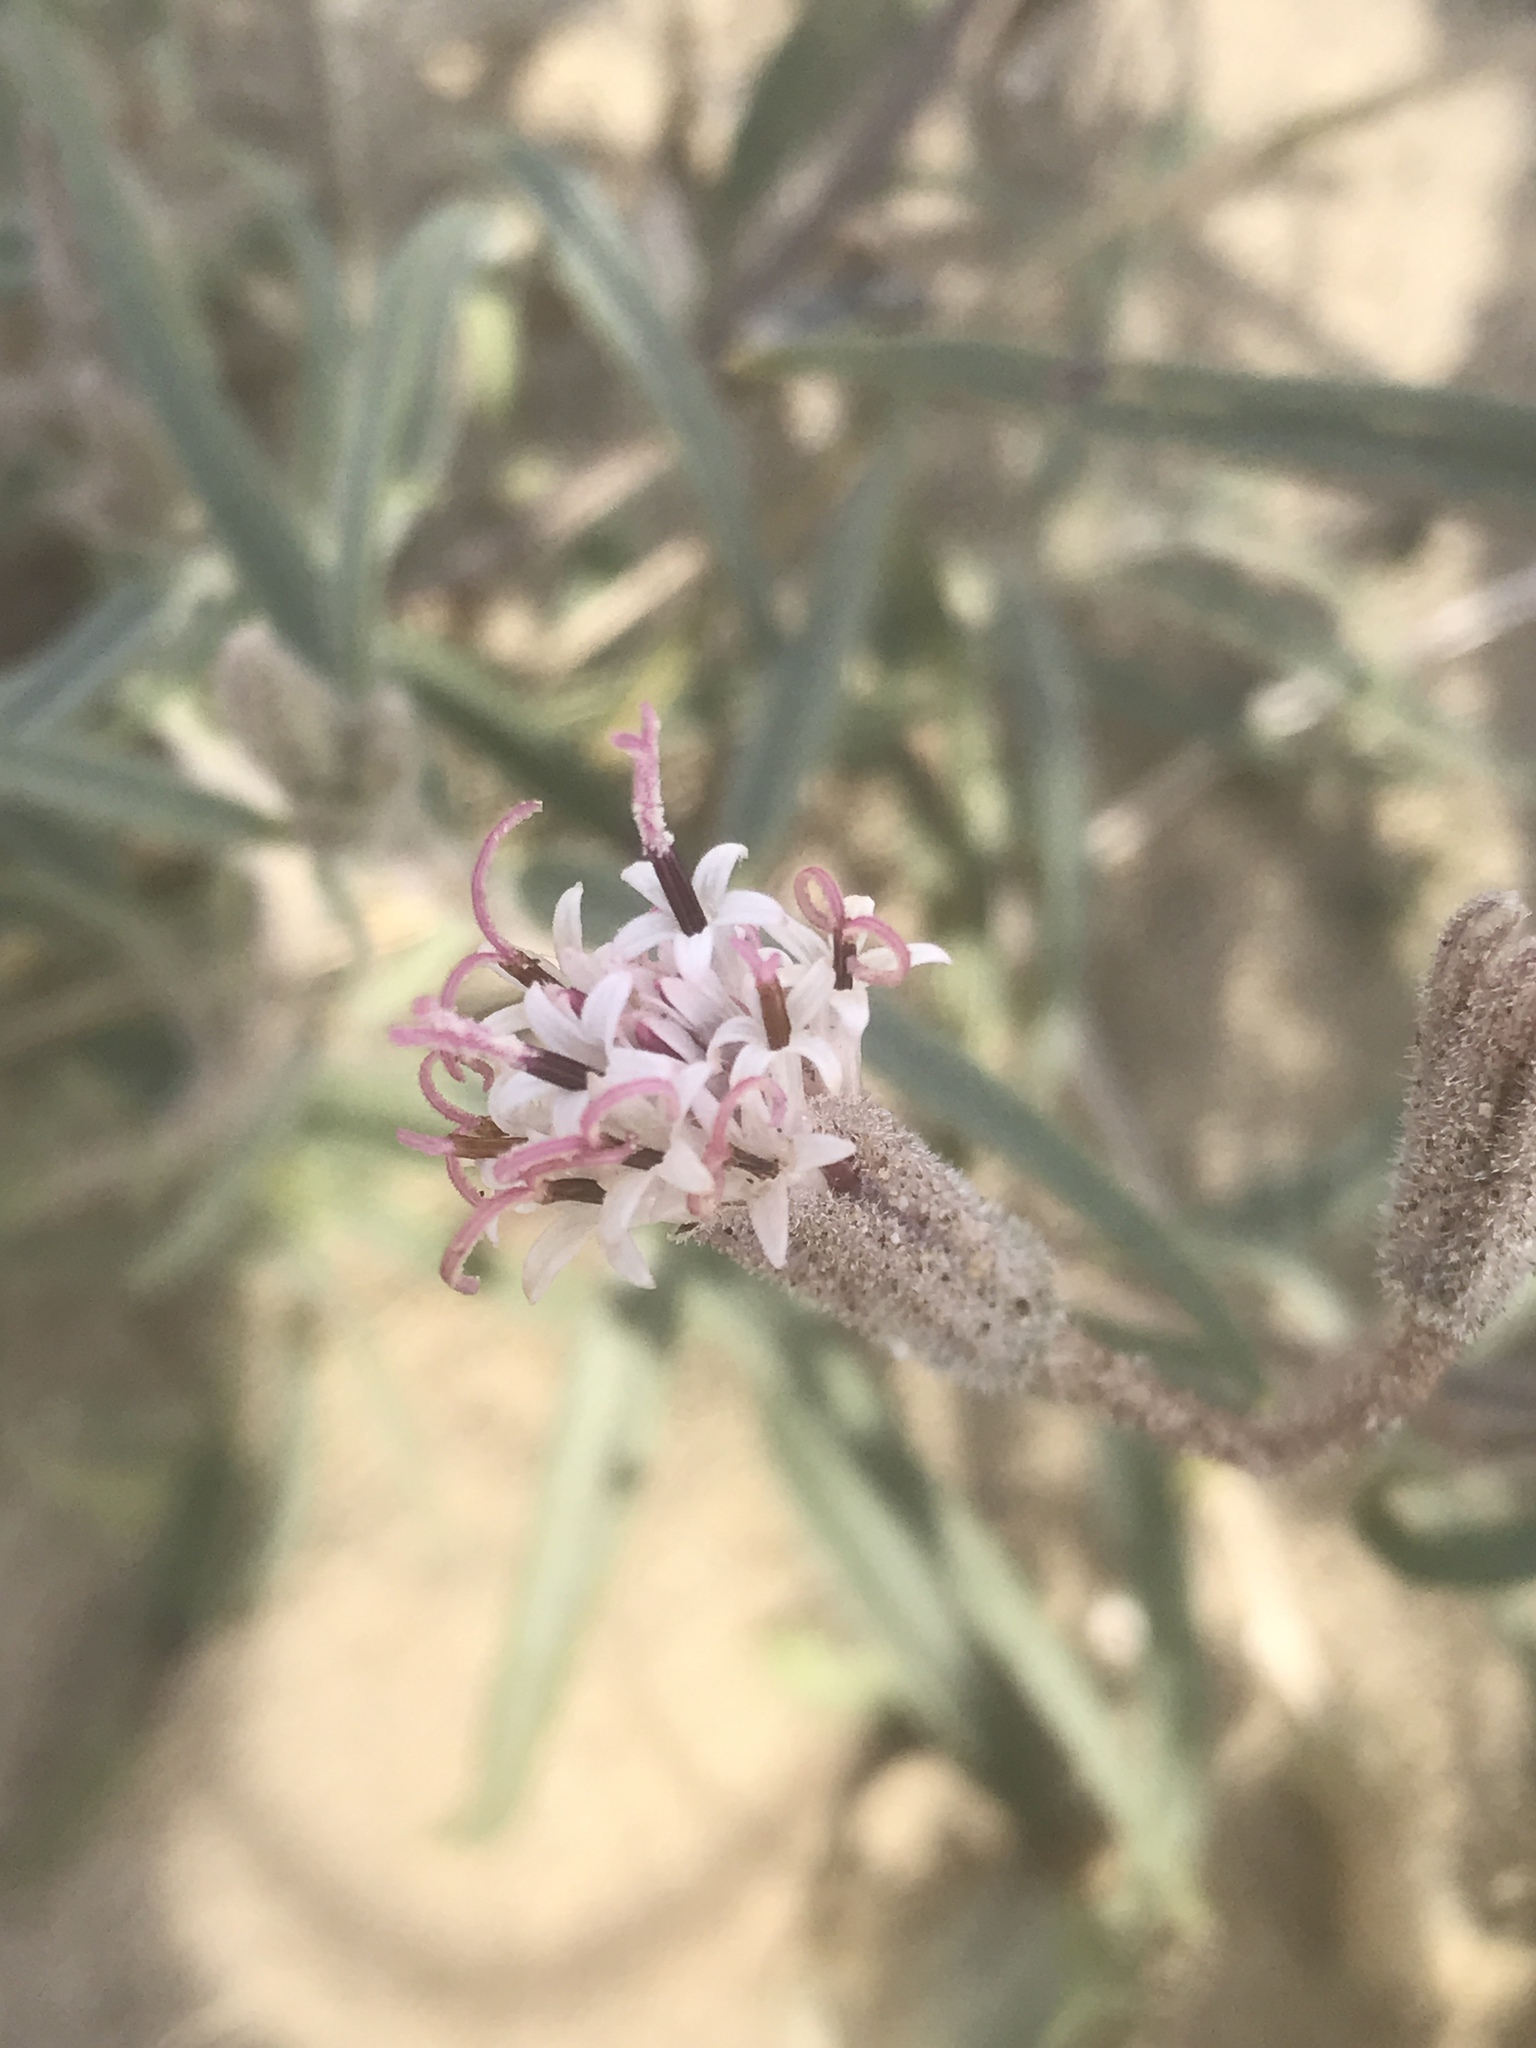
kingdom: Plantae
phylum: Tracheophyta
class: Magnoliopsida
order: Asterales
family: Asteraceae
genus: Palafoxia
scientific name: Palafoxia arida
